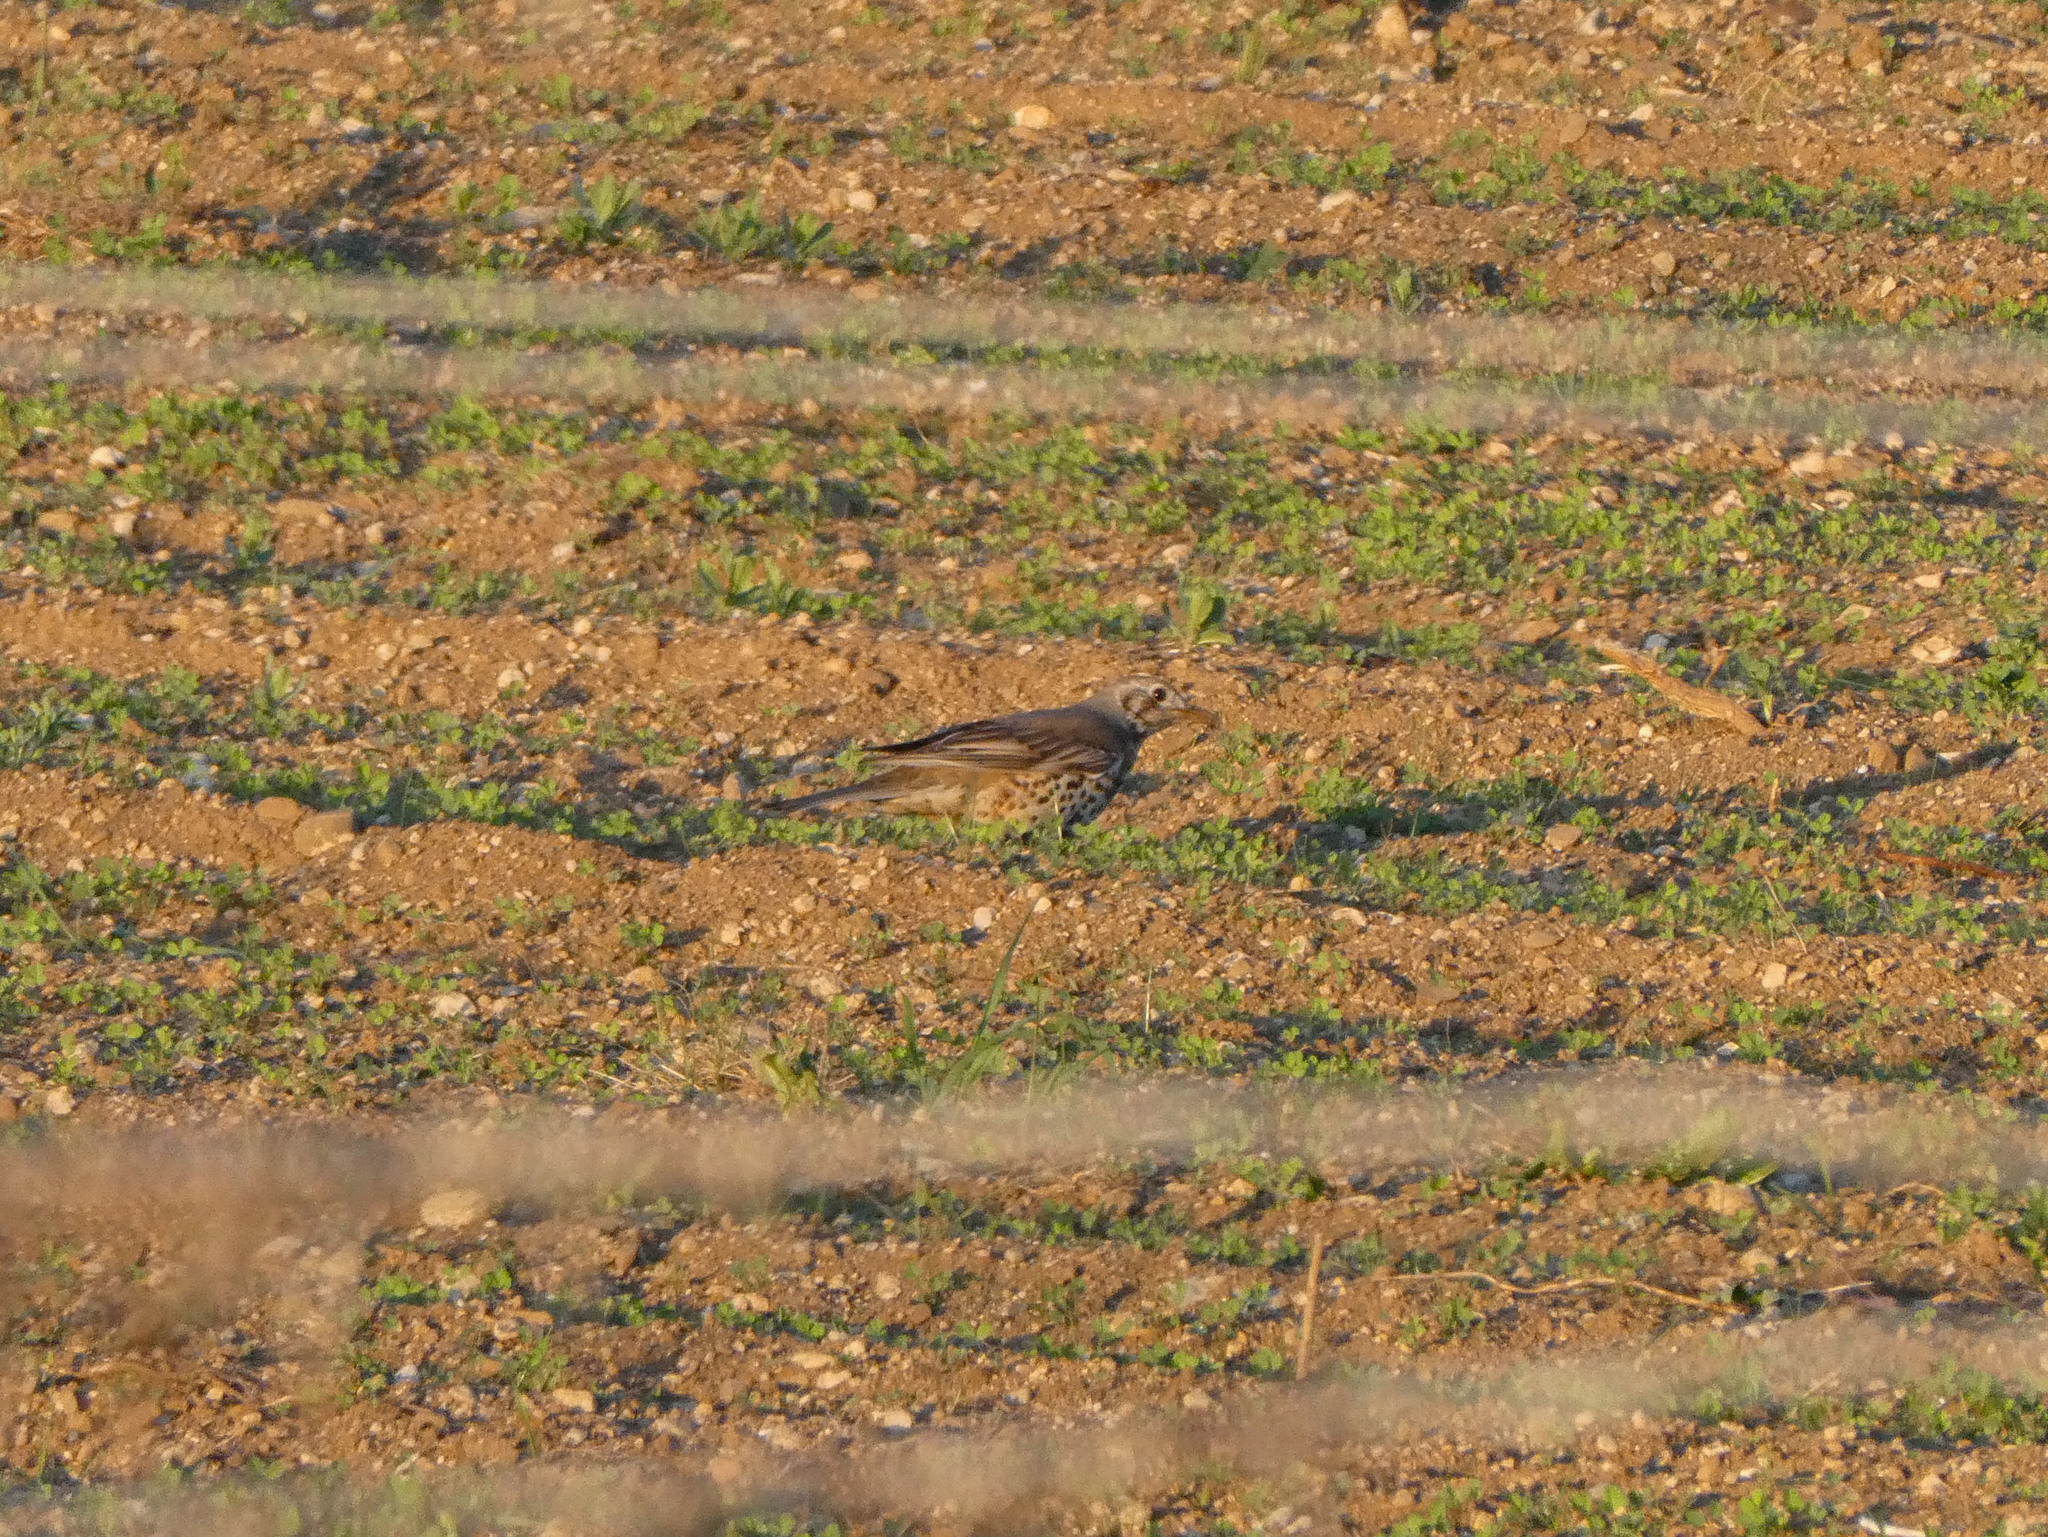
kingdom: Animalia
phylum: Chordata
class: Aves
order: Passeriformes
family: Turdidae
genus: Turdus
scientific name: Turdus viscivorus
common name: Mistle thrush
